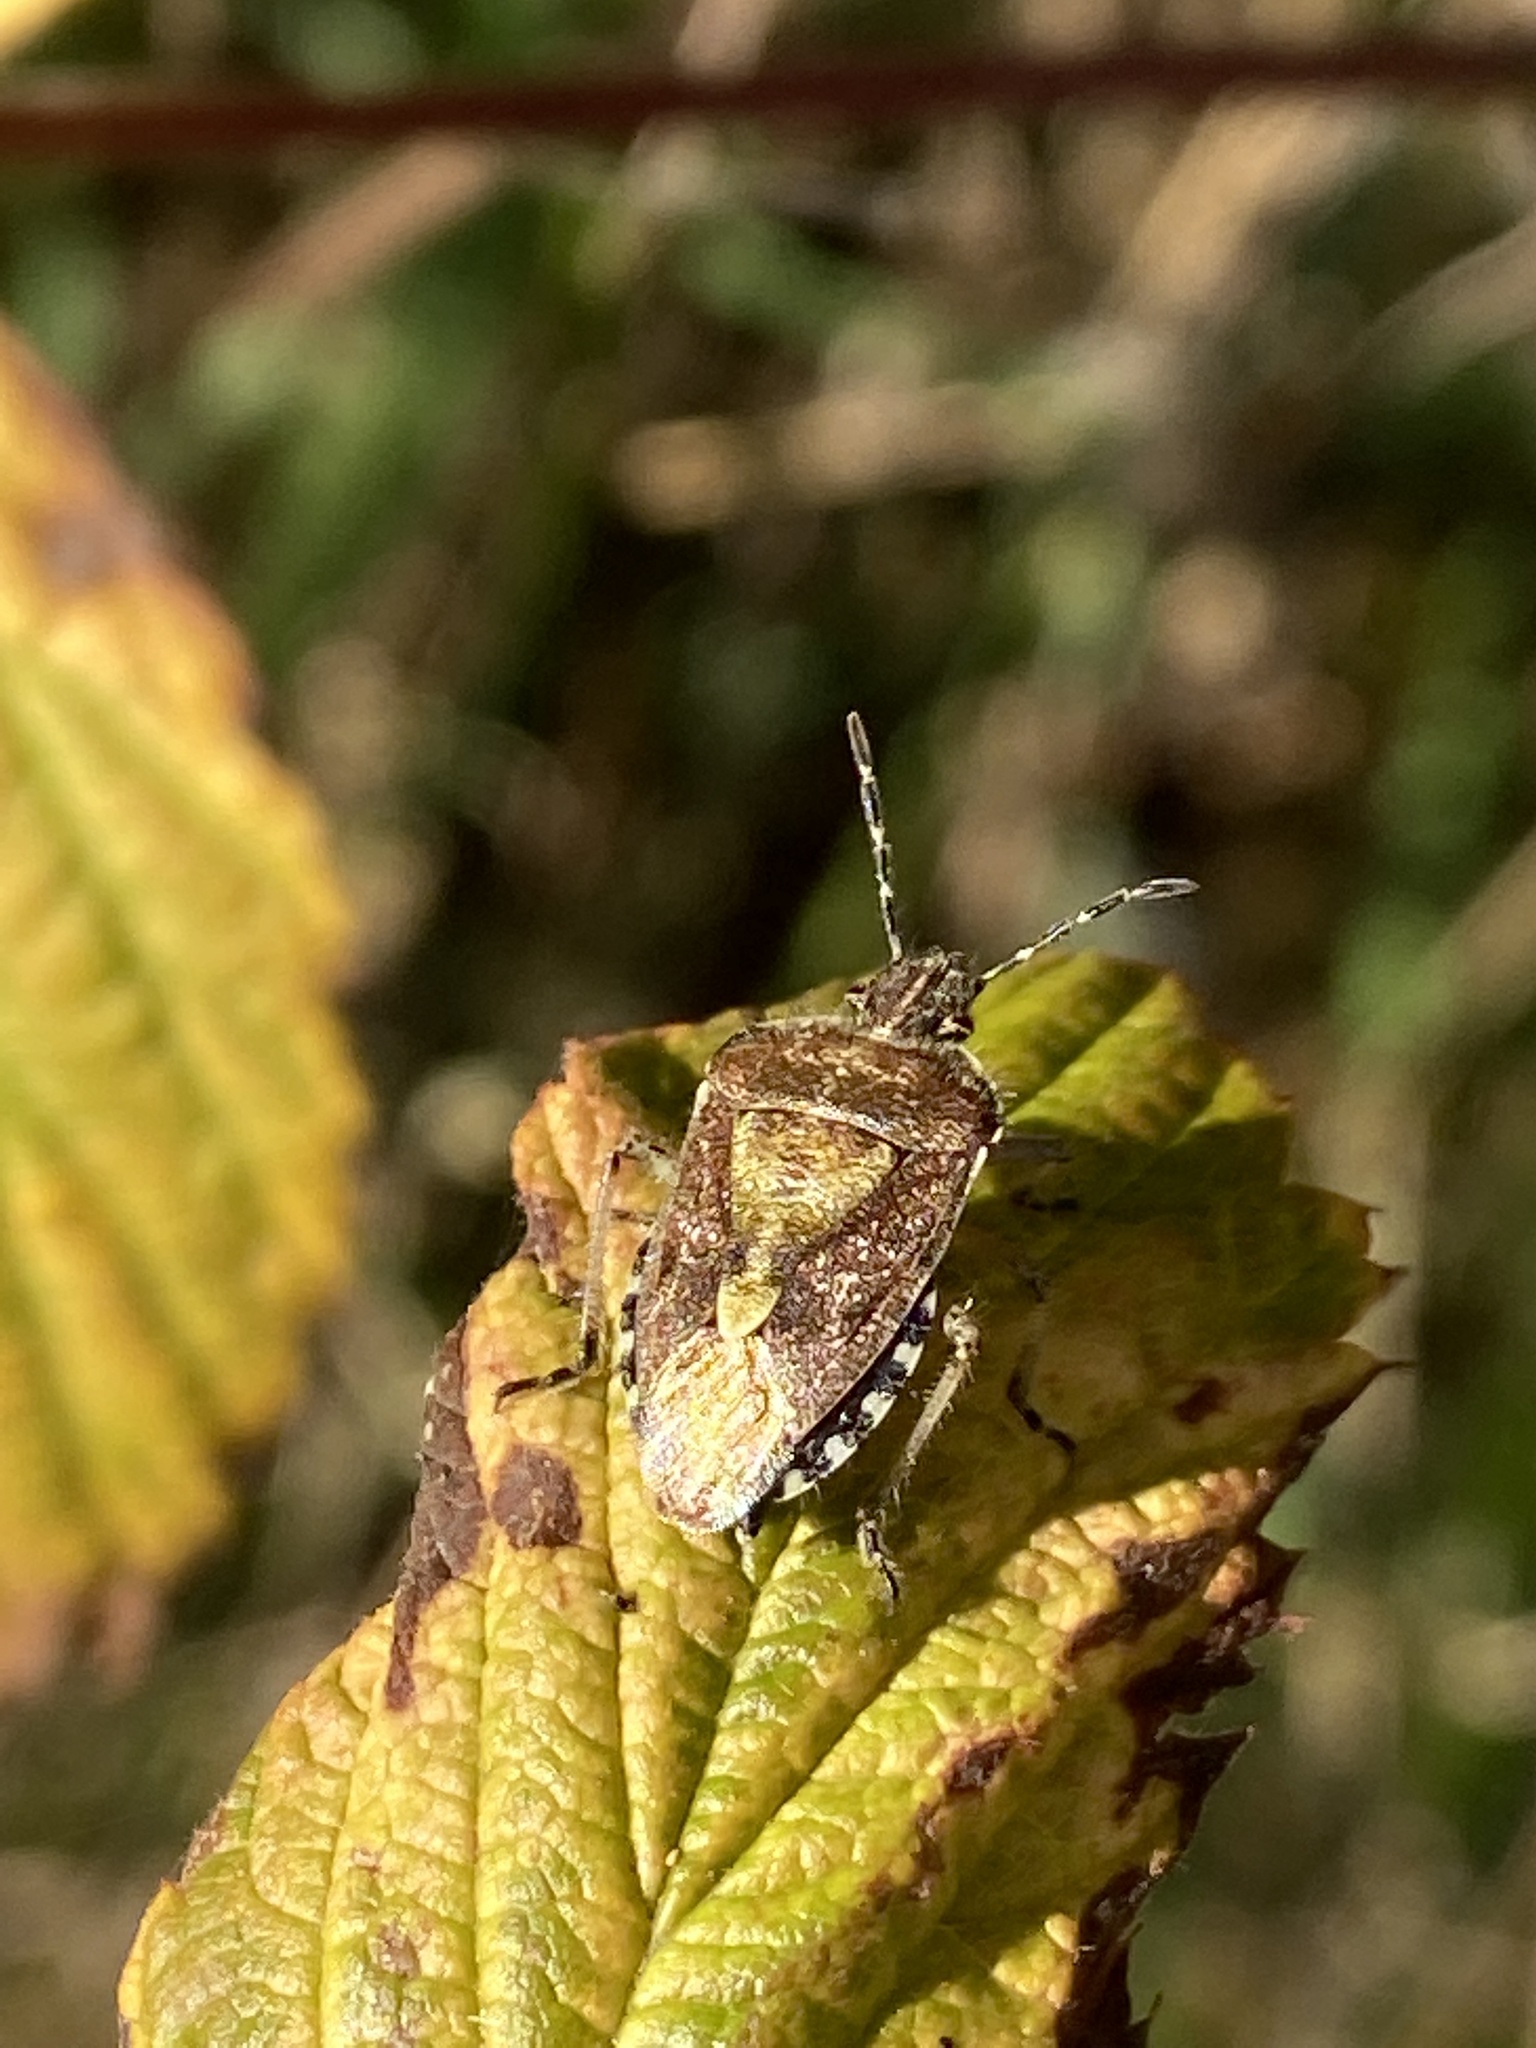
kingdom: Animalia
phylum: Arthropoda
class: Insecta
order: Hemiptera
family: Pentatomidae
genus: Dolycoris
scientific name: Dolycoris baccarum
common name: Sloe bug
